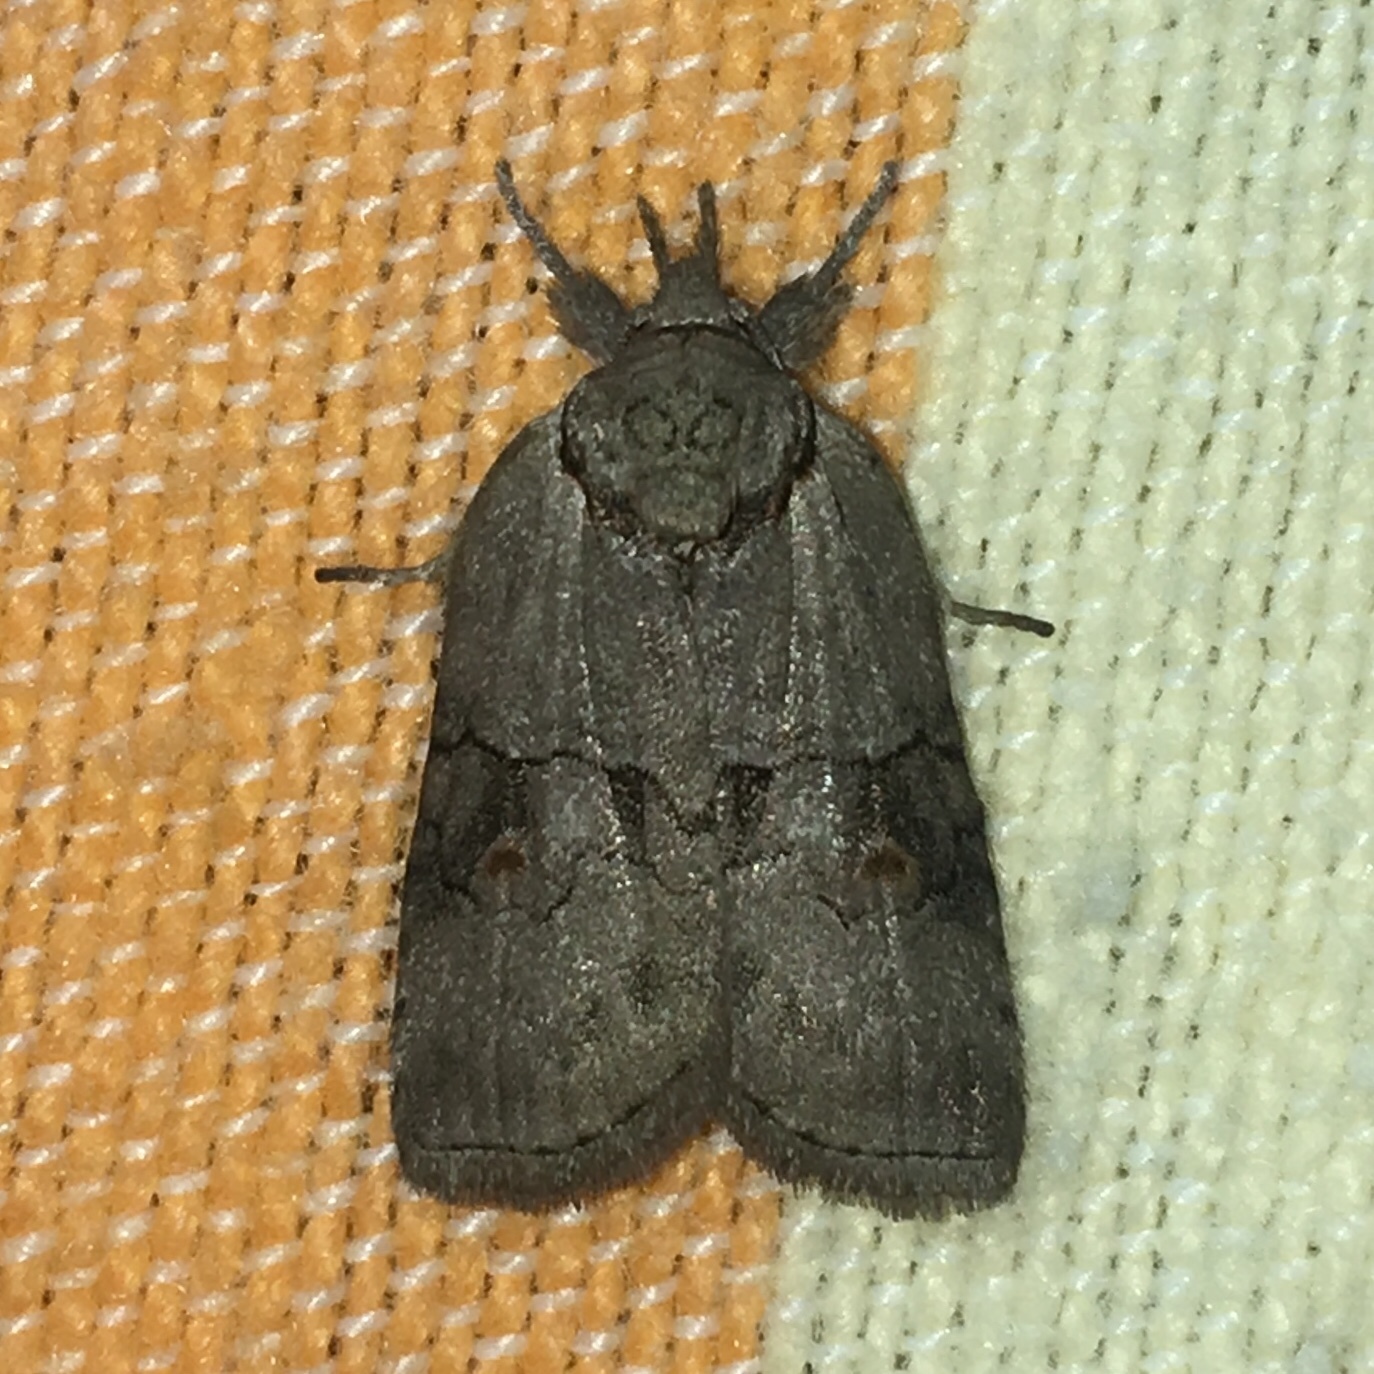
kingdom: Animalia
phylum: Arthropoda
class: Insecta
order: Lepidoptera
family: Nolidae
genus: Nycteola
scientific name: Nycteola cinereana
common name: Grey midget moth
